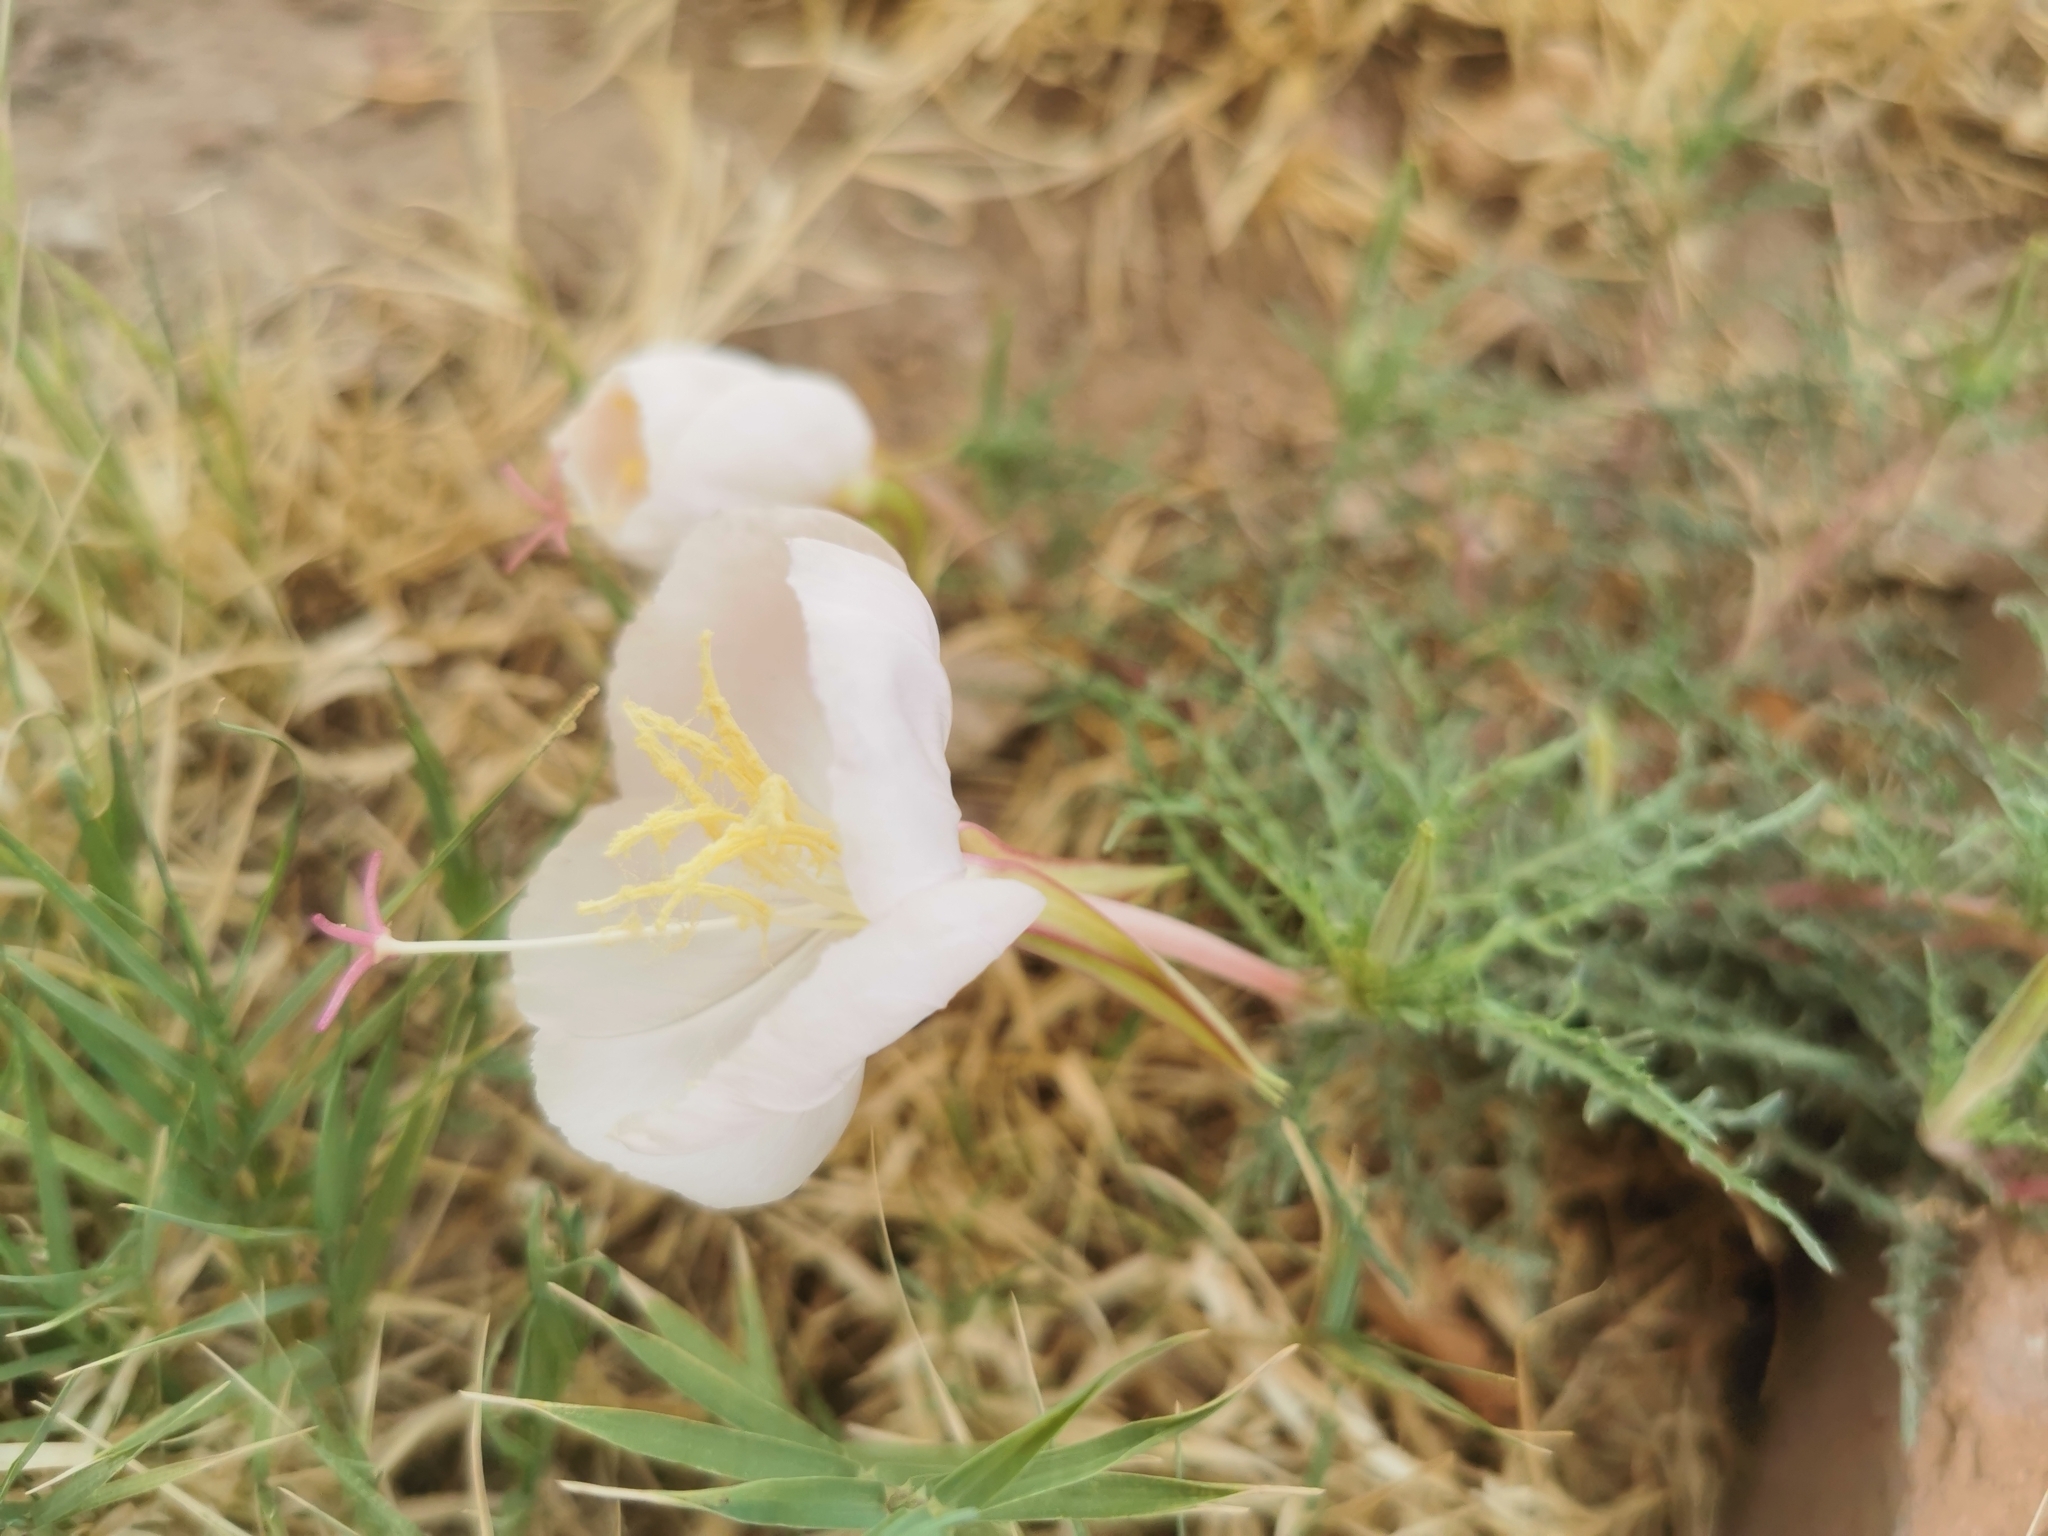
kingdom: Plantae
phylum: Tracheophyta
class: Magnoliopsida
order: Myrtales
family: Onagraceae
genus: Oenothera
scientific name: Oenothera dissecta
